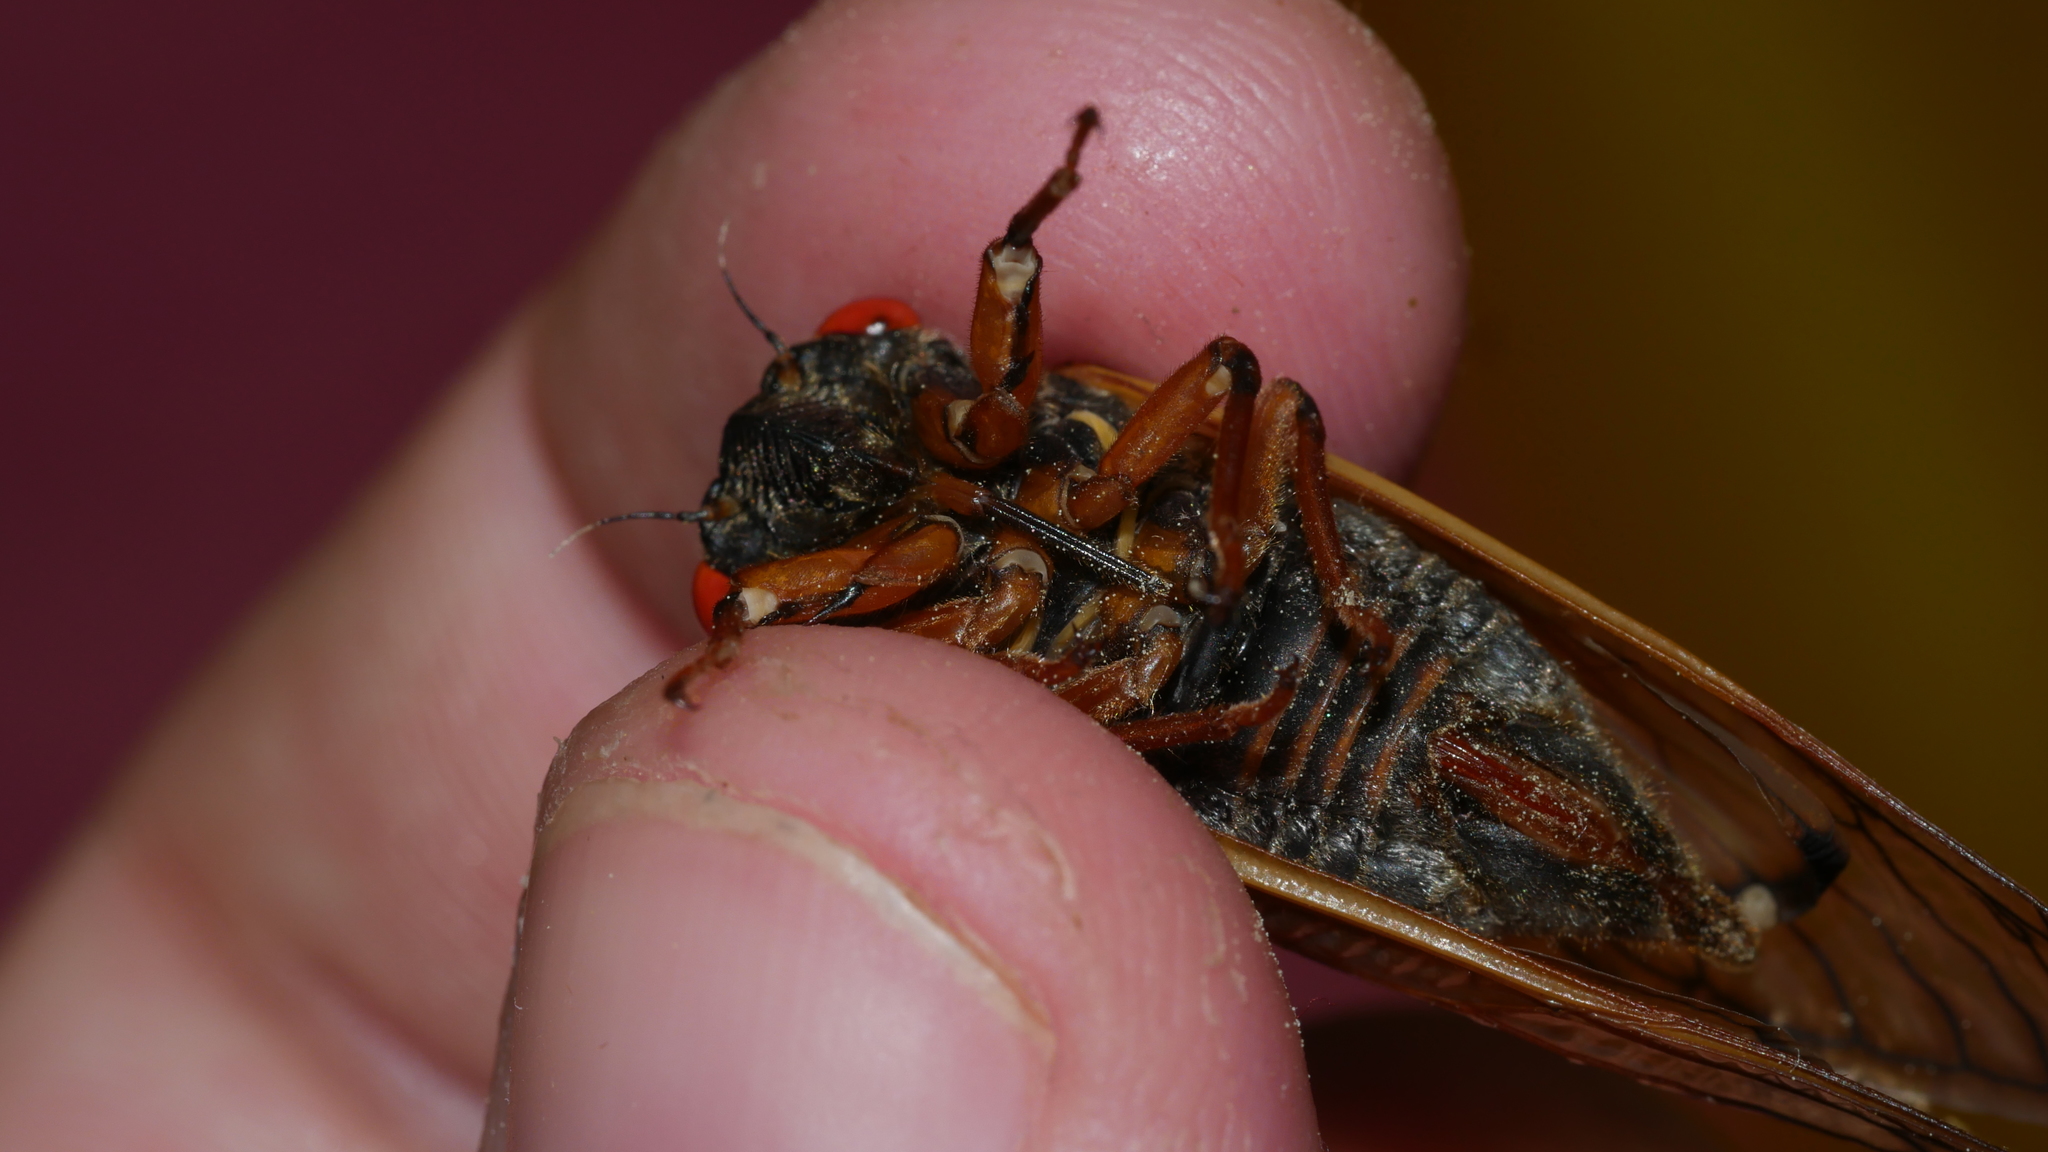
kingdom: Animalia
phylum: Arthropoda
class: Insecta
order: Hemiptera
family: Cicadidae
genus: Magicicada
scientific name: Magicicada septendecula
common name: Decula periodical cicada
